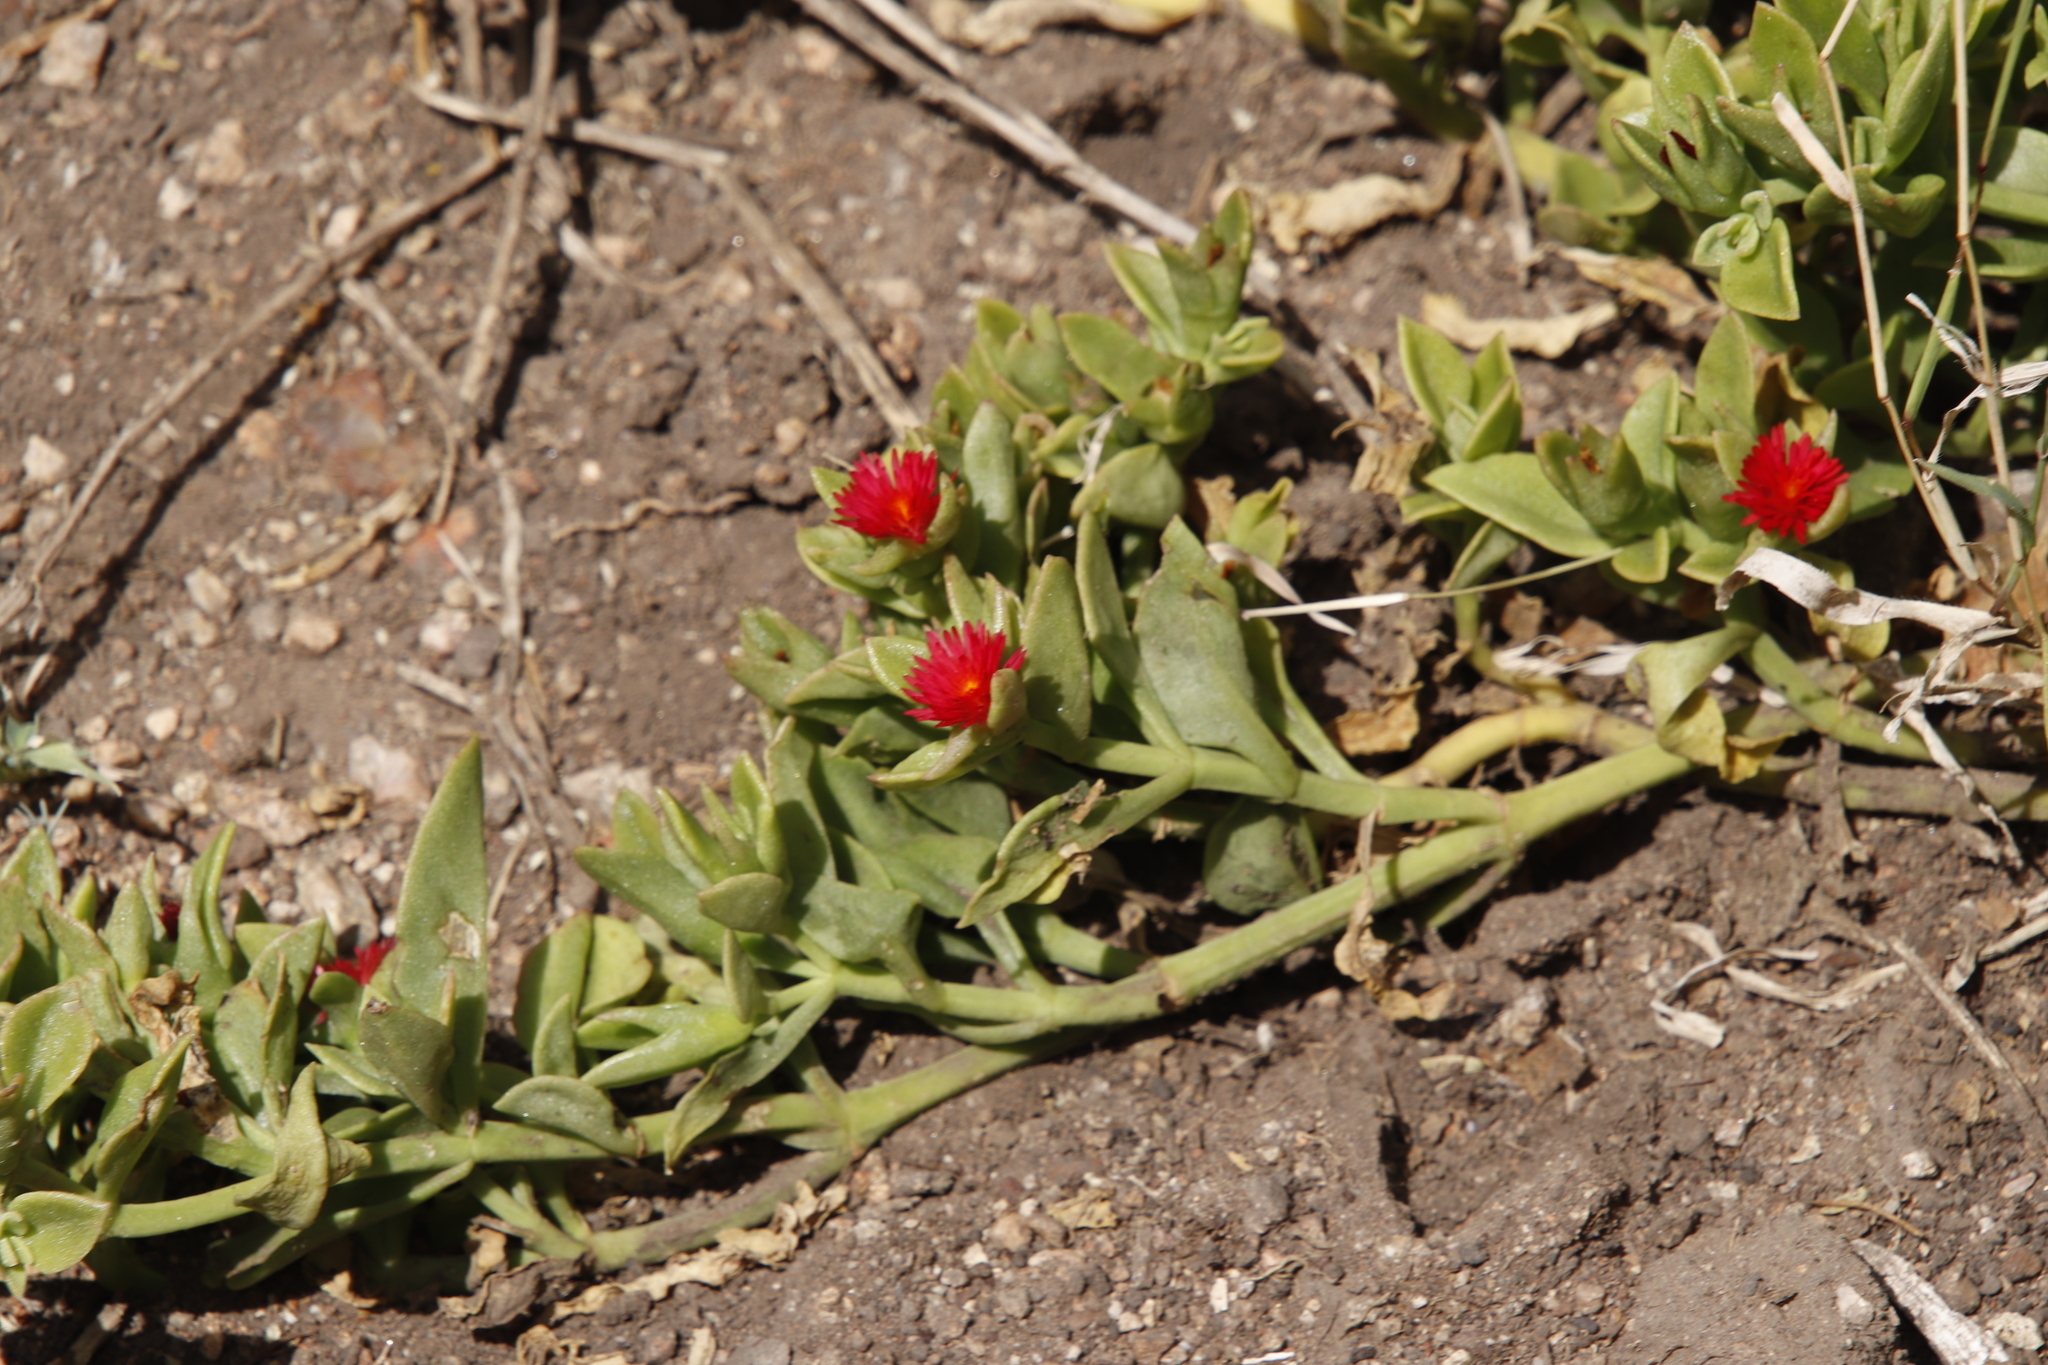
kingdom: Plantae
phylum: Tracheophyta
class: Magnoliopsida
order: Caryophyllales
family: Aizoaceae
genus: Mesembryanthemum
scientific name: Mesembryanthemum lancifolium
